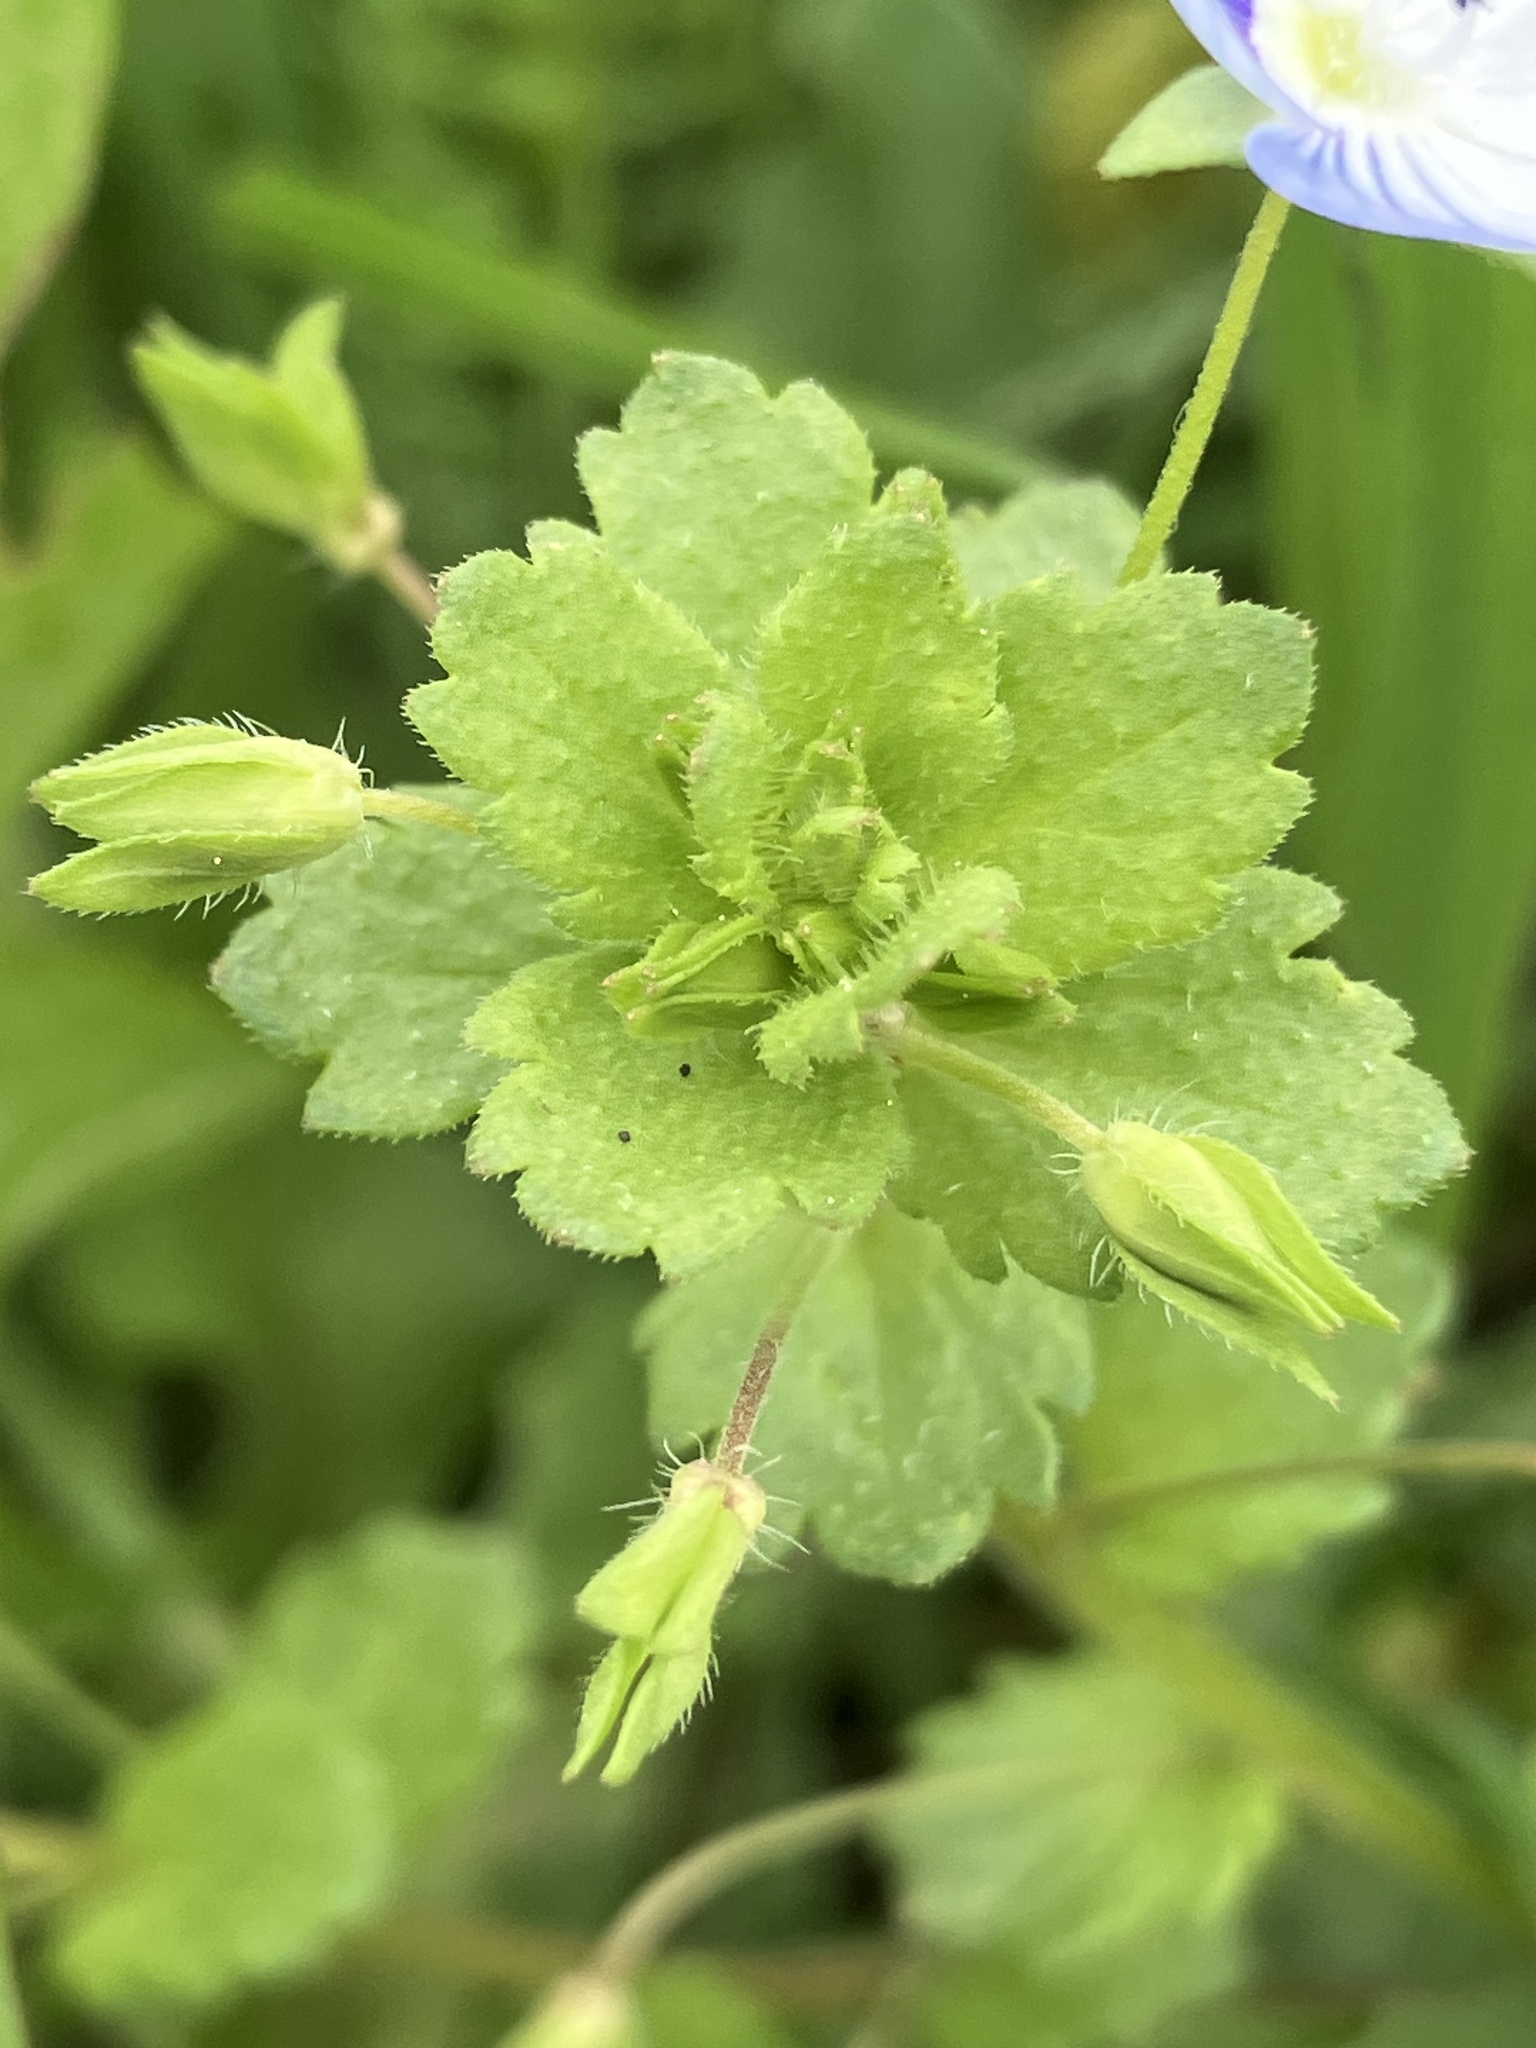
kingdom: Plantae
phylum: Tracheophyta
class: Magnoliopsida
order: Lamiales
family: Plantaginaceae
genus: Veronica
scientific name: Veronica persica
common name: Common field-speedwell
